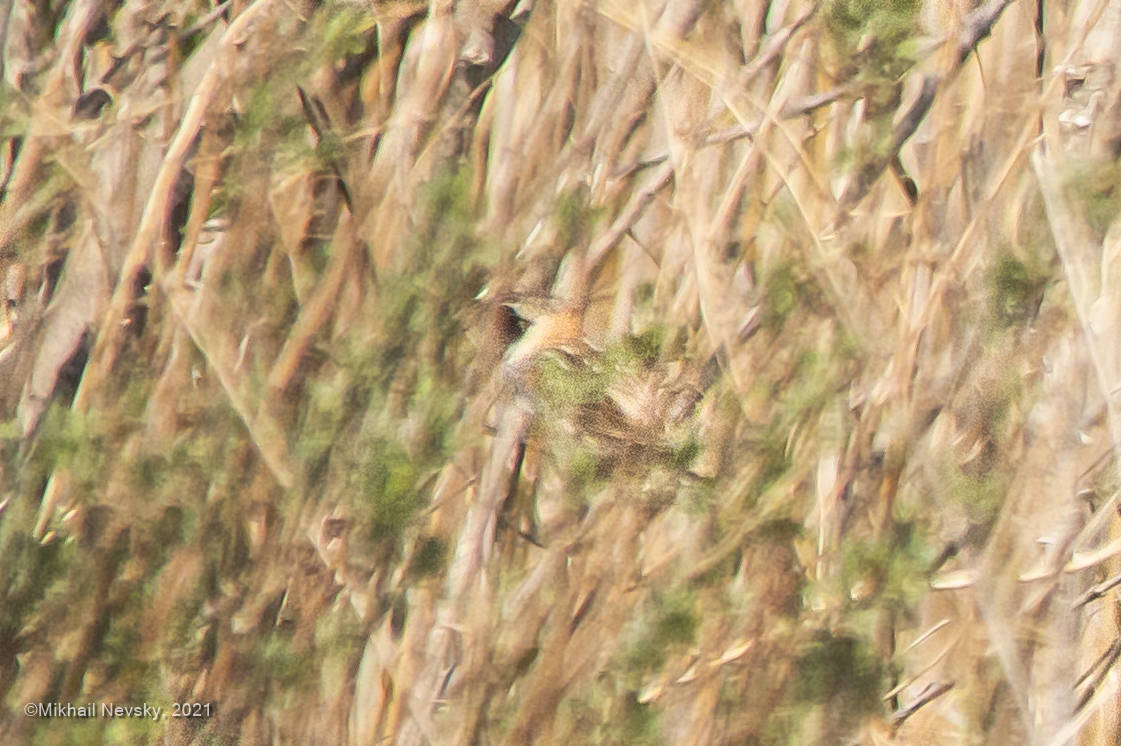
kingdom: Animalia
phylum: Chordata
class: Aves
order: Passeriformes
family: Emberizidae
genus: Emberiza
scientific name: Emberiza yessoensis
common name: Japanese reed bunting
